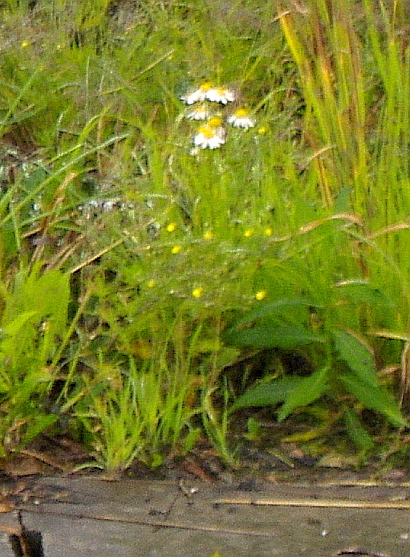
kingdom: Plantae
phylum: Tracheophyta
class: Magnoliopsida
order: Asterales
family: Asteraceae
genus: Tripleurospermum
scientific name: Tripleurospermum inodorum
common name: Scentless mayweed
